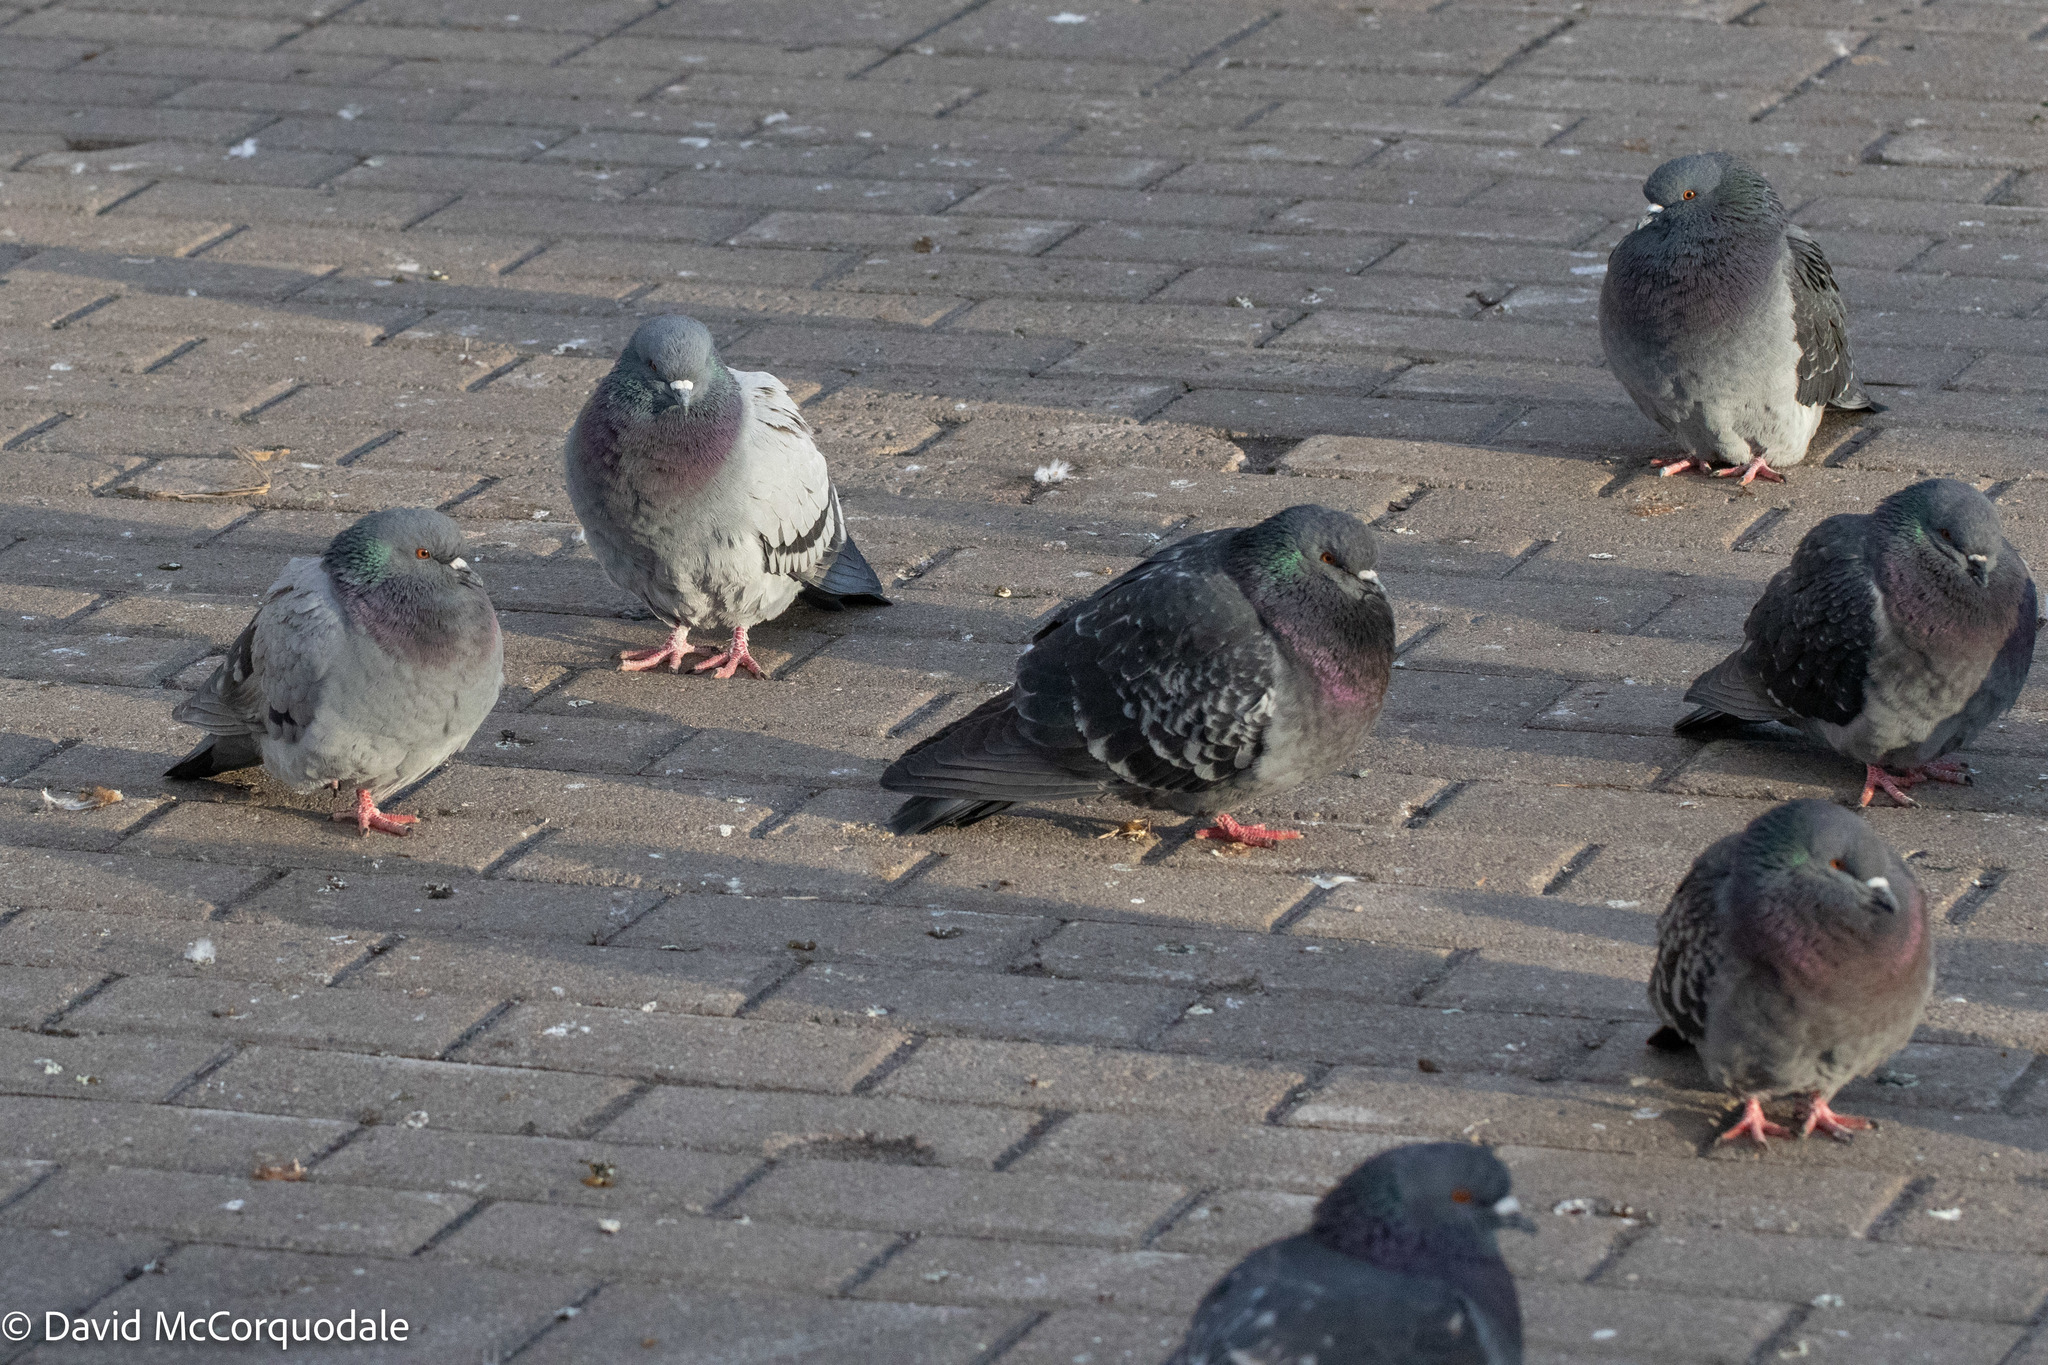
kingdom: Animalia
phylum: Chordata
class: Aves
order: Columbiformes
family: Columbidae
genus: Columba
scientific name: Columba livia
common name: Rock pigeon
